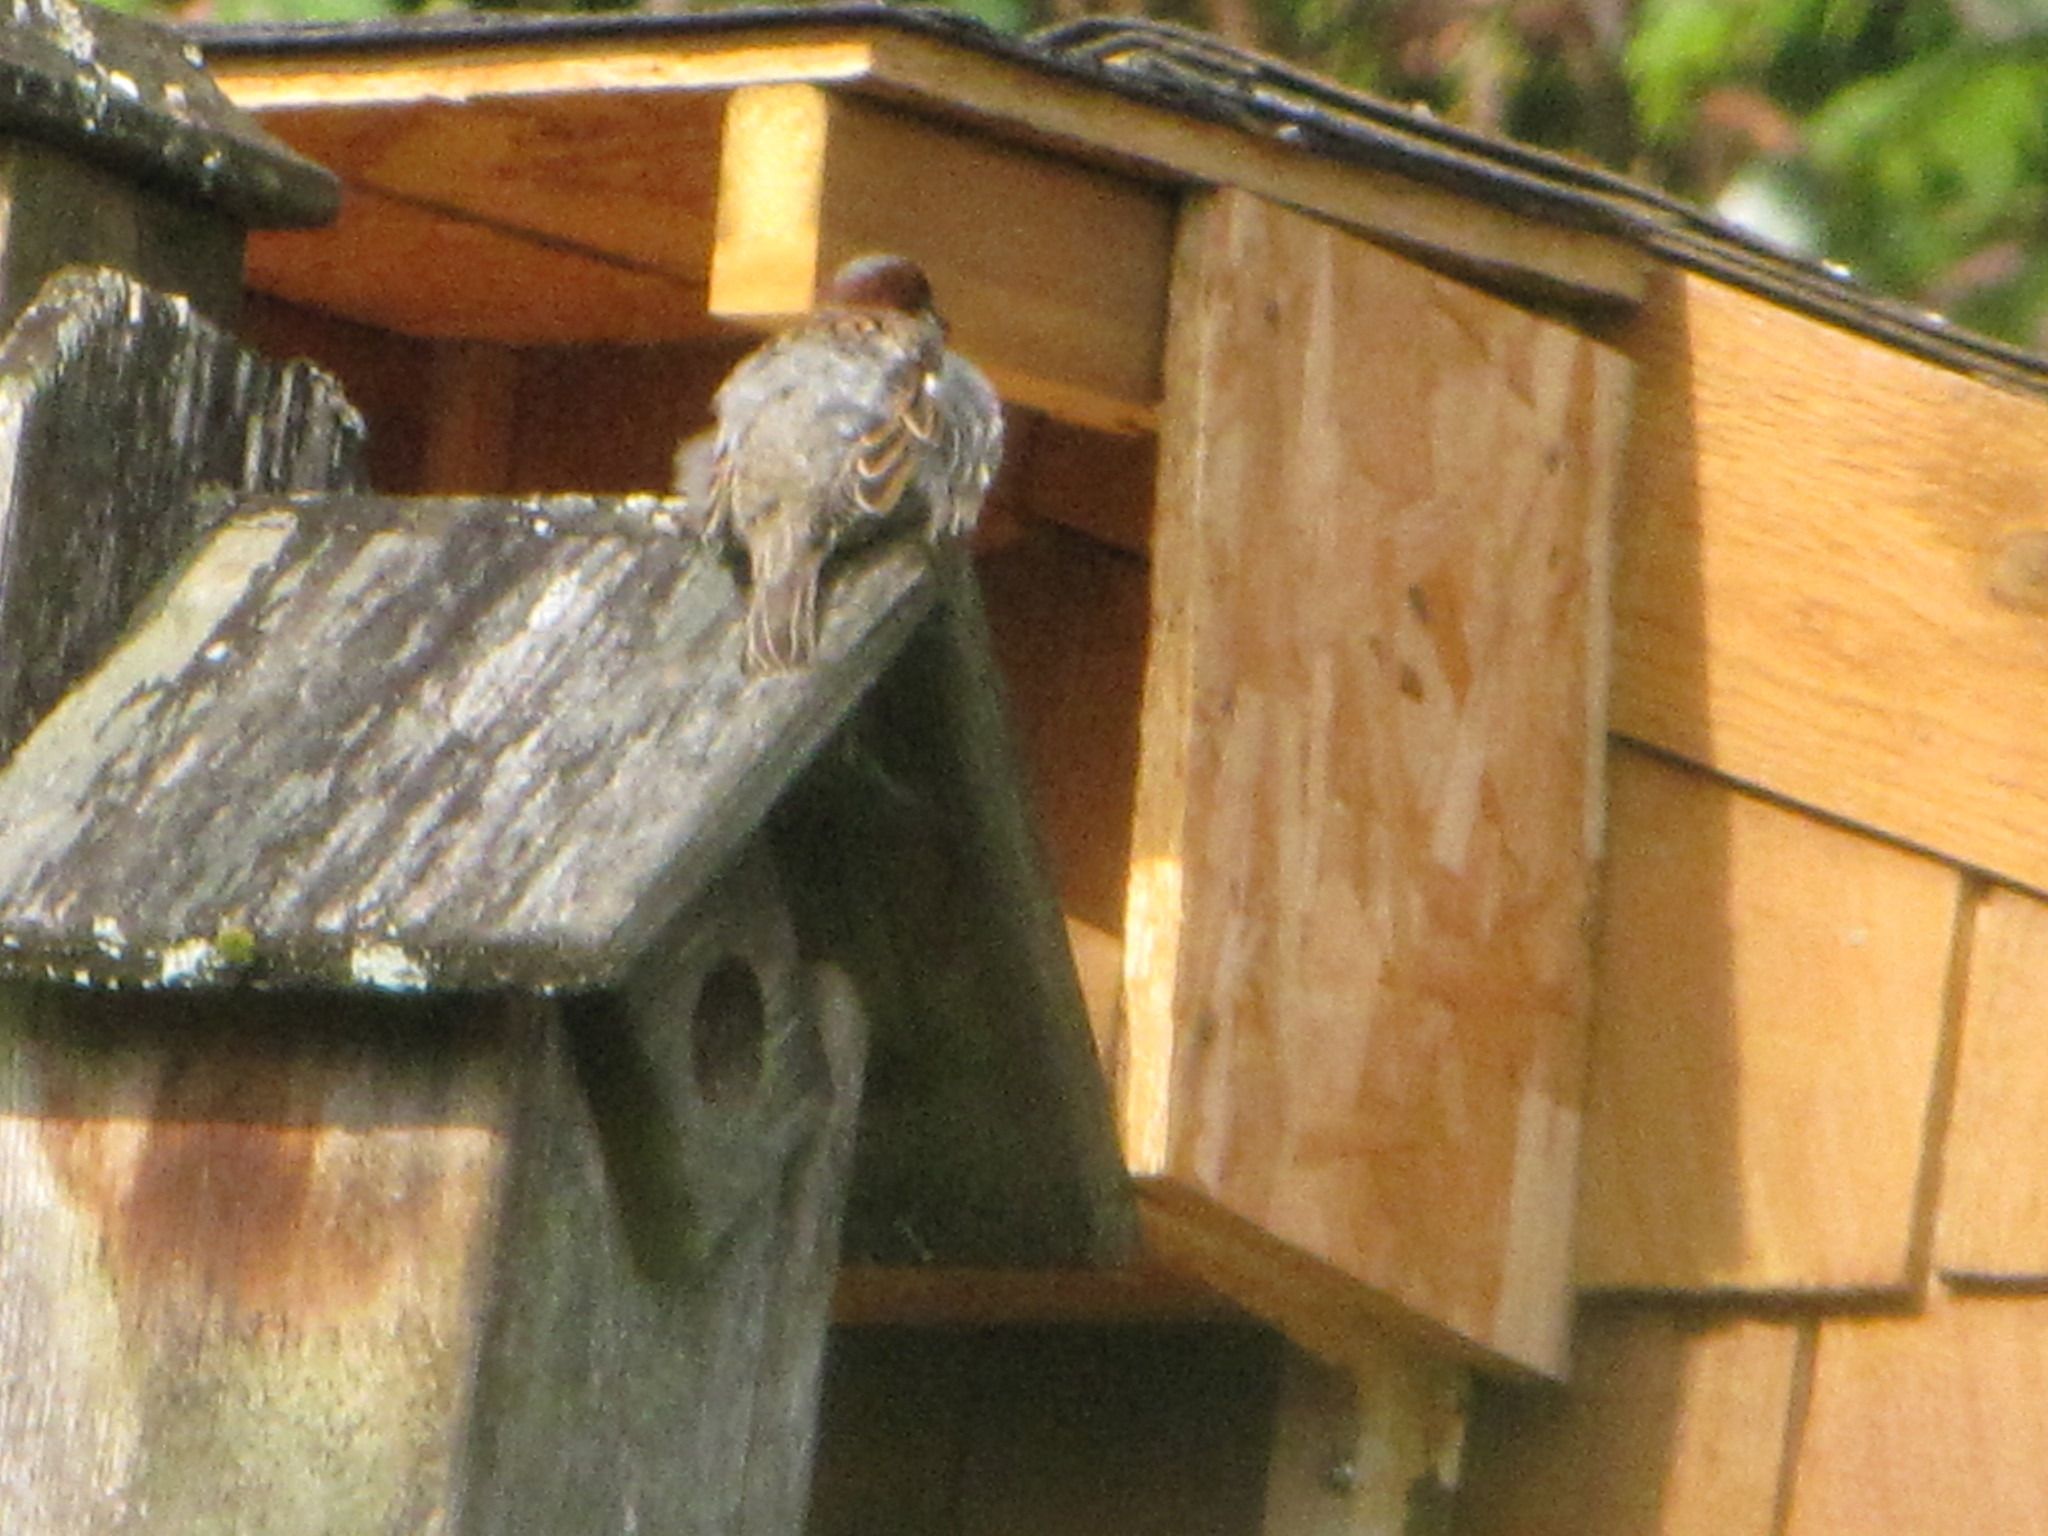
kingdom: Animalia
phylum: Chordata
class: Aves
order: Passeriformes
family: Passeridae
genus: Passer
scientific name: Passer domesticus
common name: House sparrow
